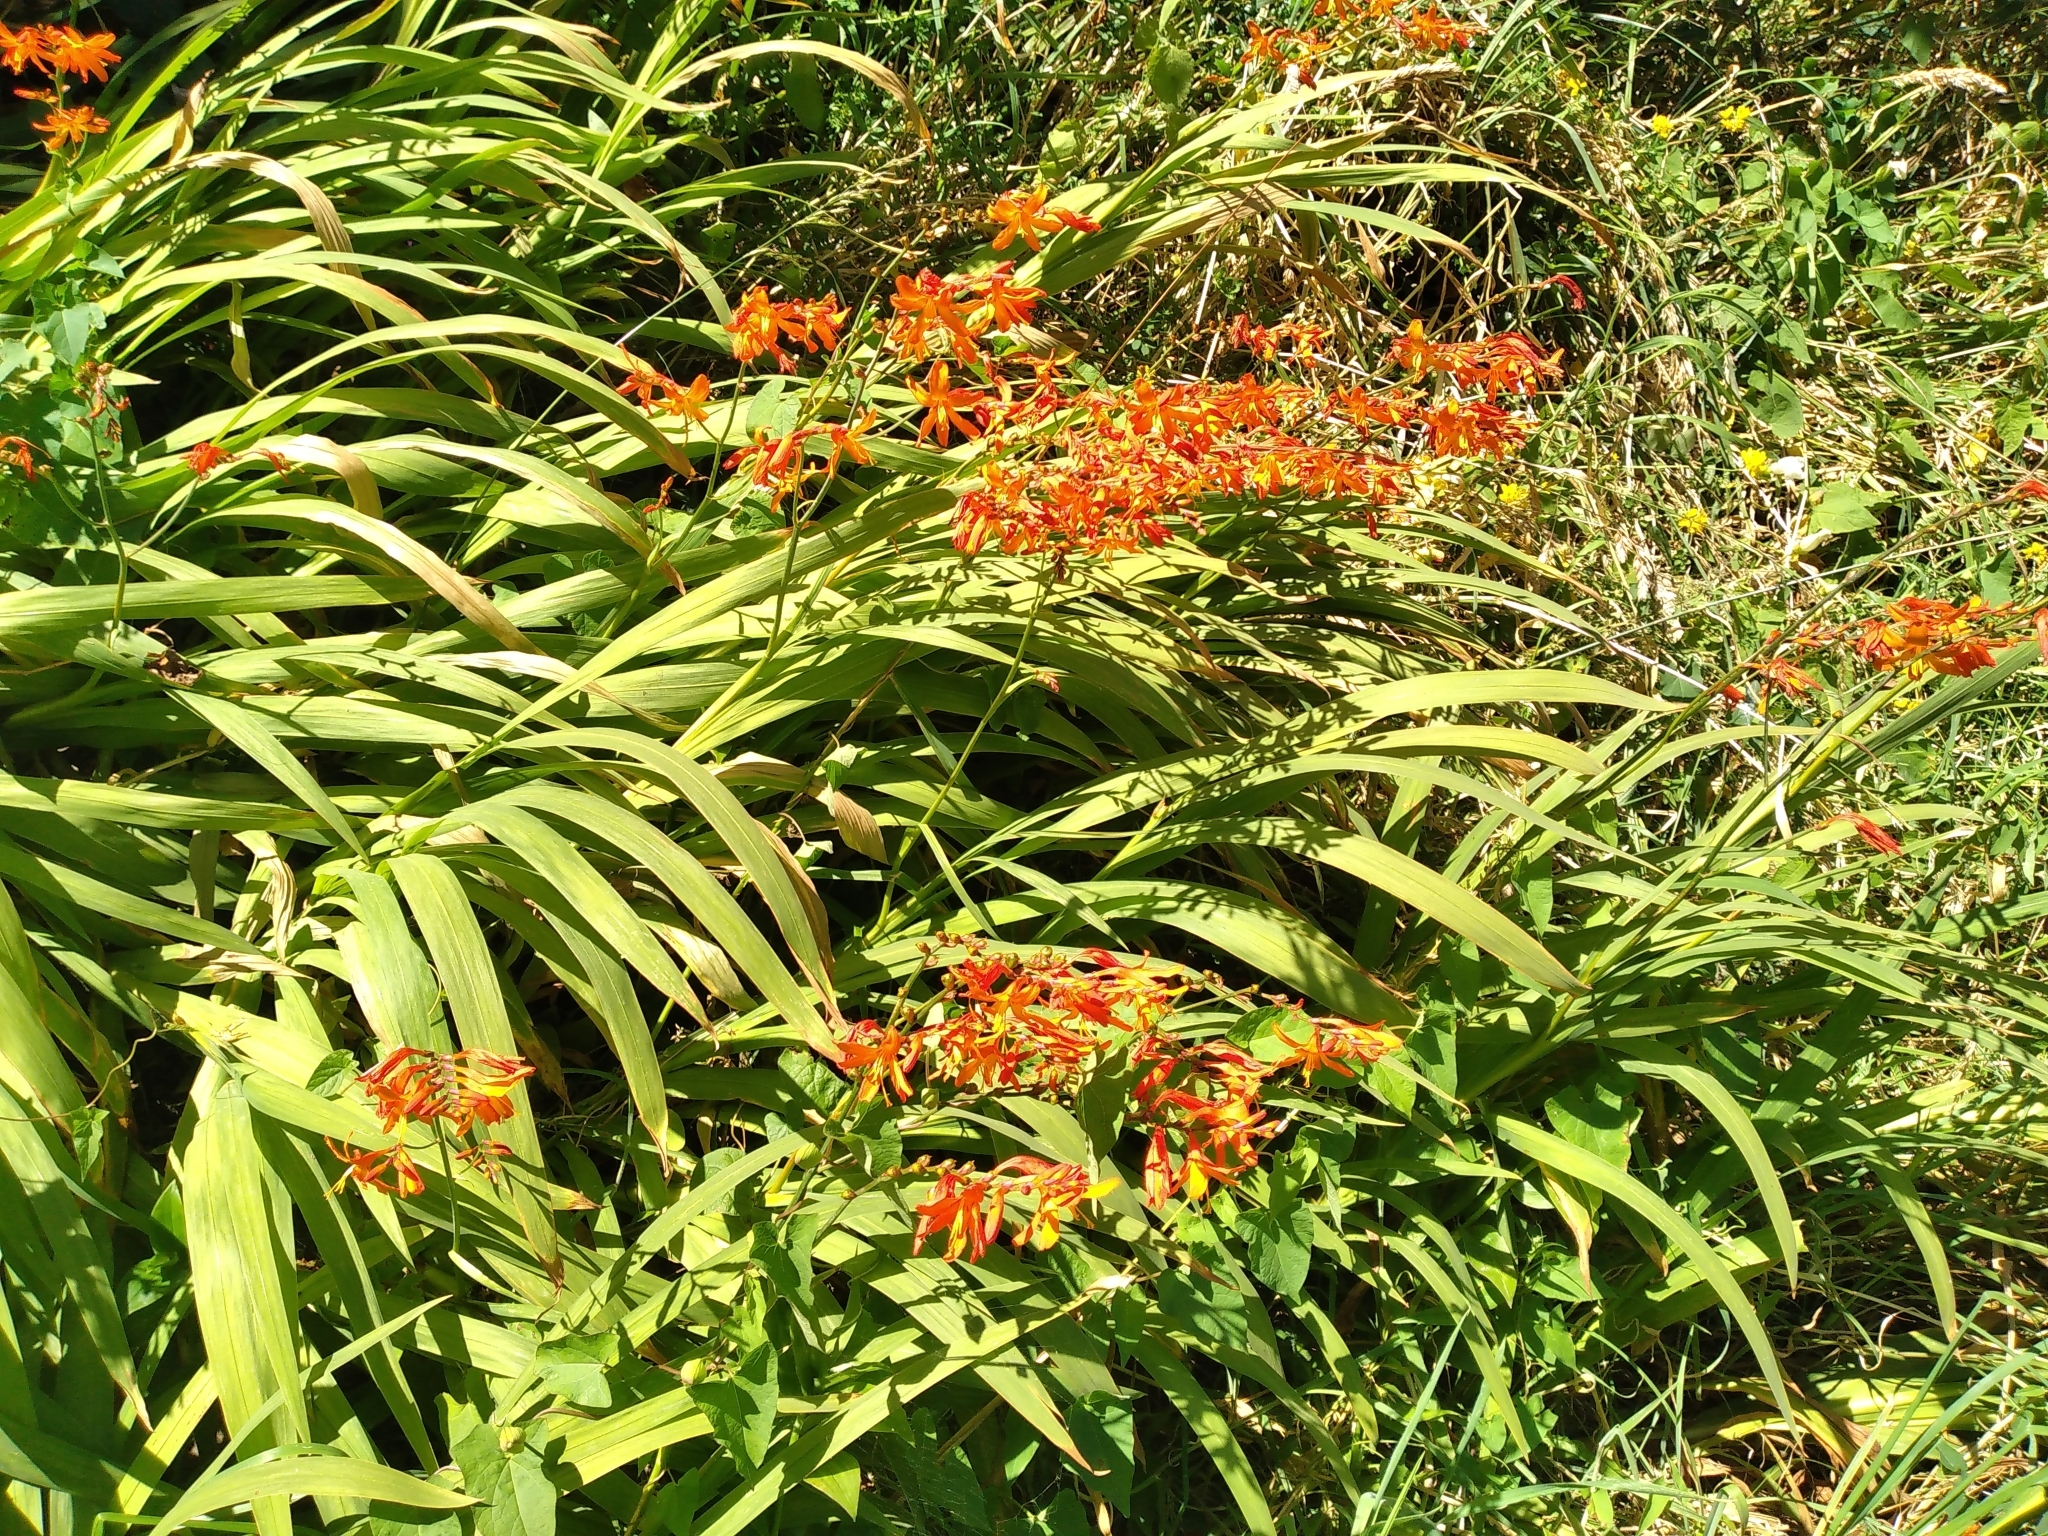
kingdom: Plantae
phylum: Tracheophyta
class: Liliopsida
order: Asparagales
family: Iridaceae
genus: Crocosmia
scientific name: Crocosmia crocosmiiflora
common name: Montbretia
